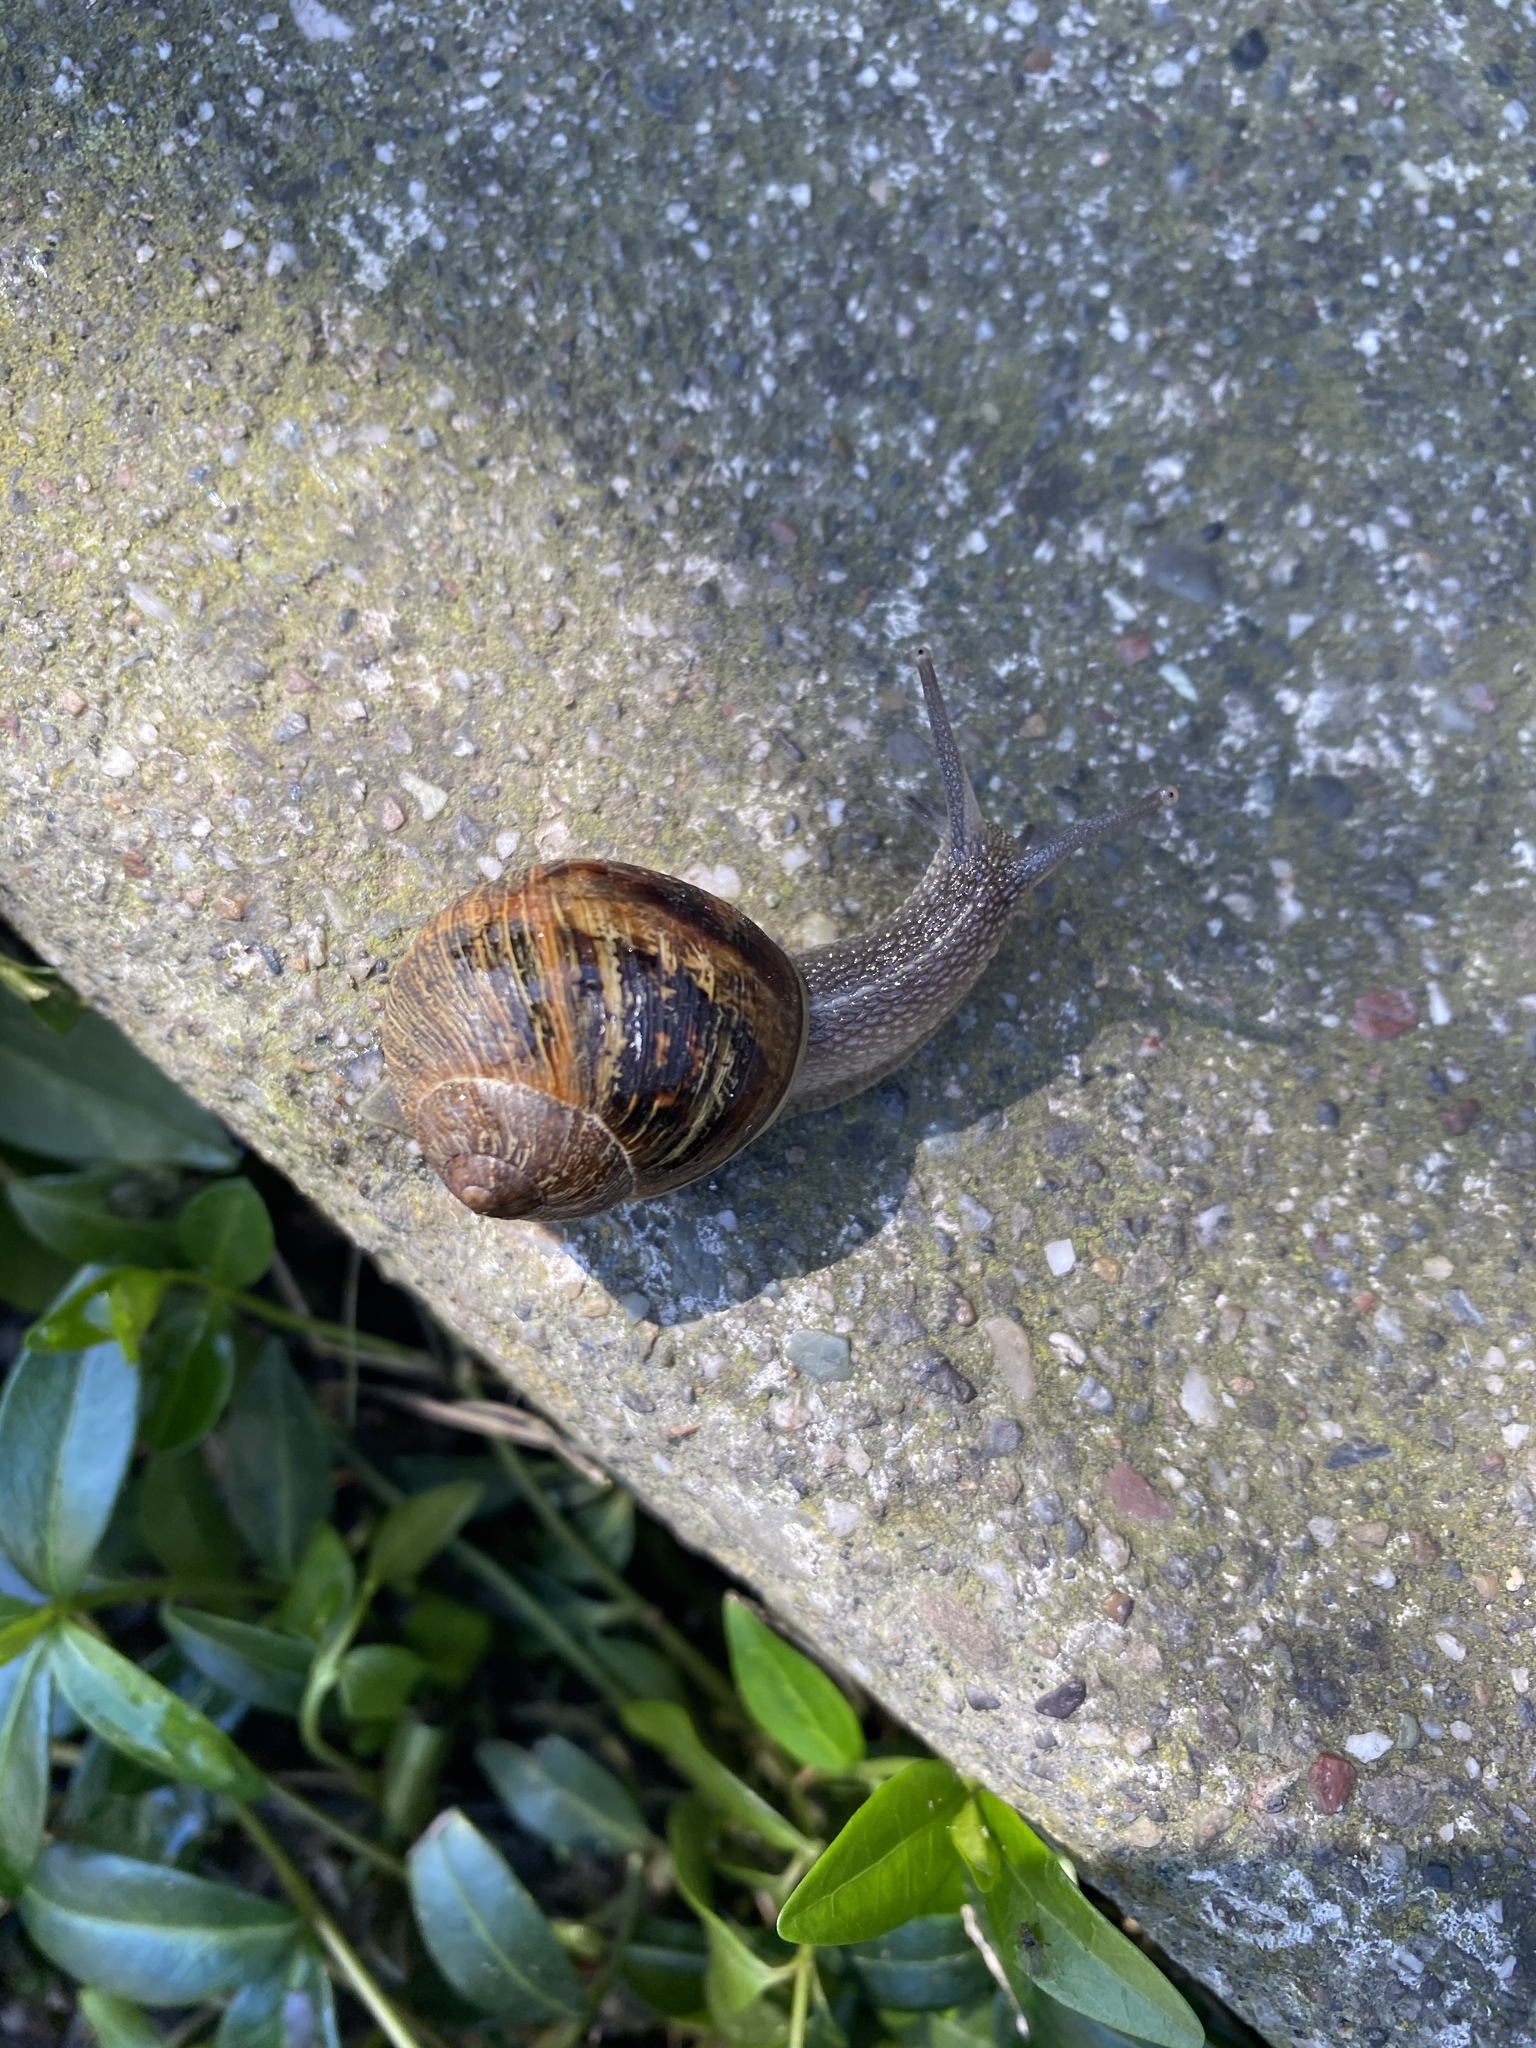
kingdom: Animalia
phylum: Mollusca
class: Gastropoda
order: Stylommatophora
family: Helicidae
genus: Cornu
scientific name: Cornu aspersum
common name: Brown garden snail
